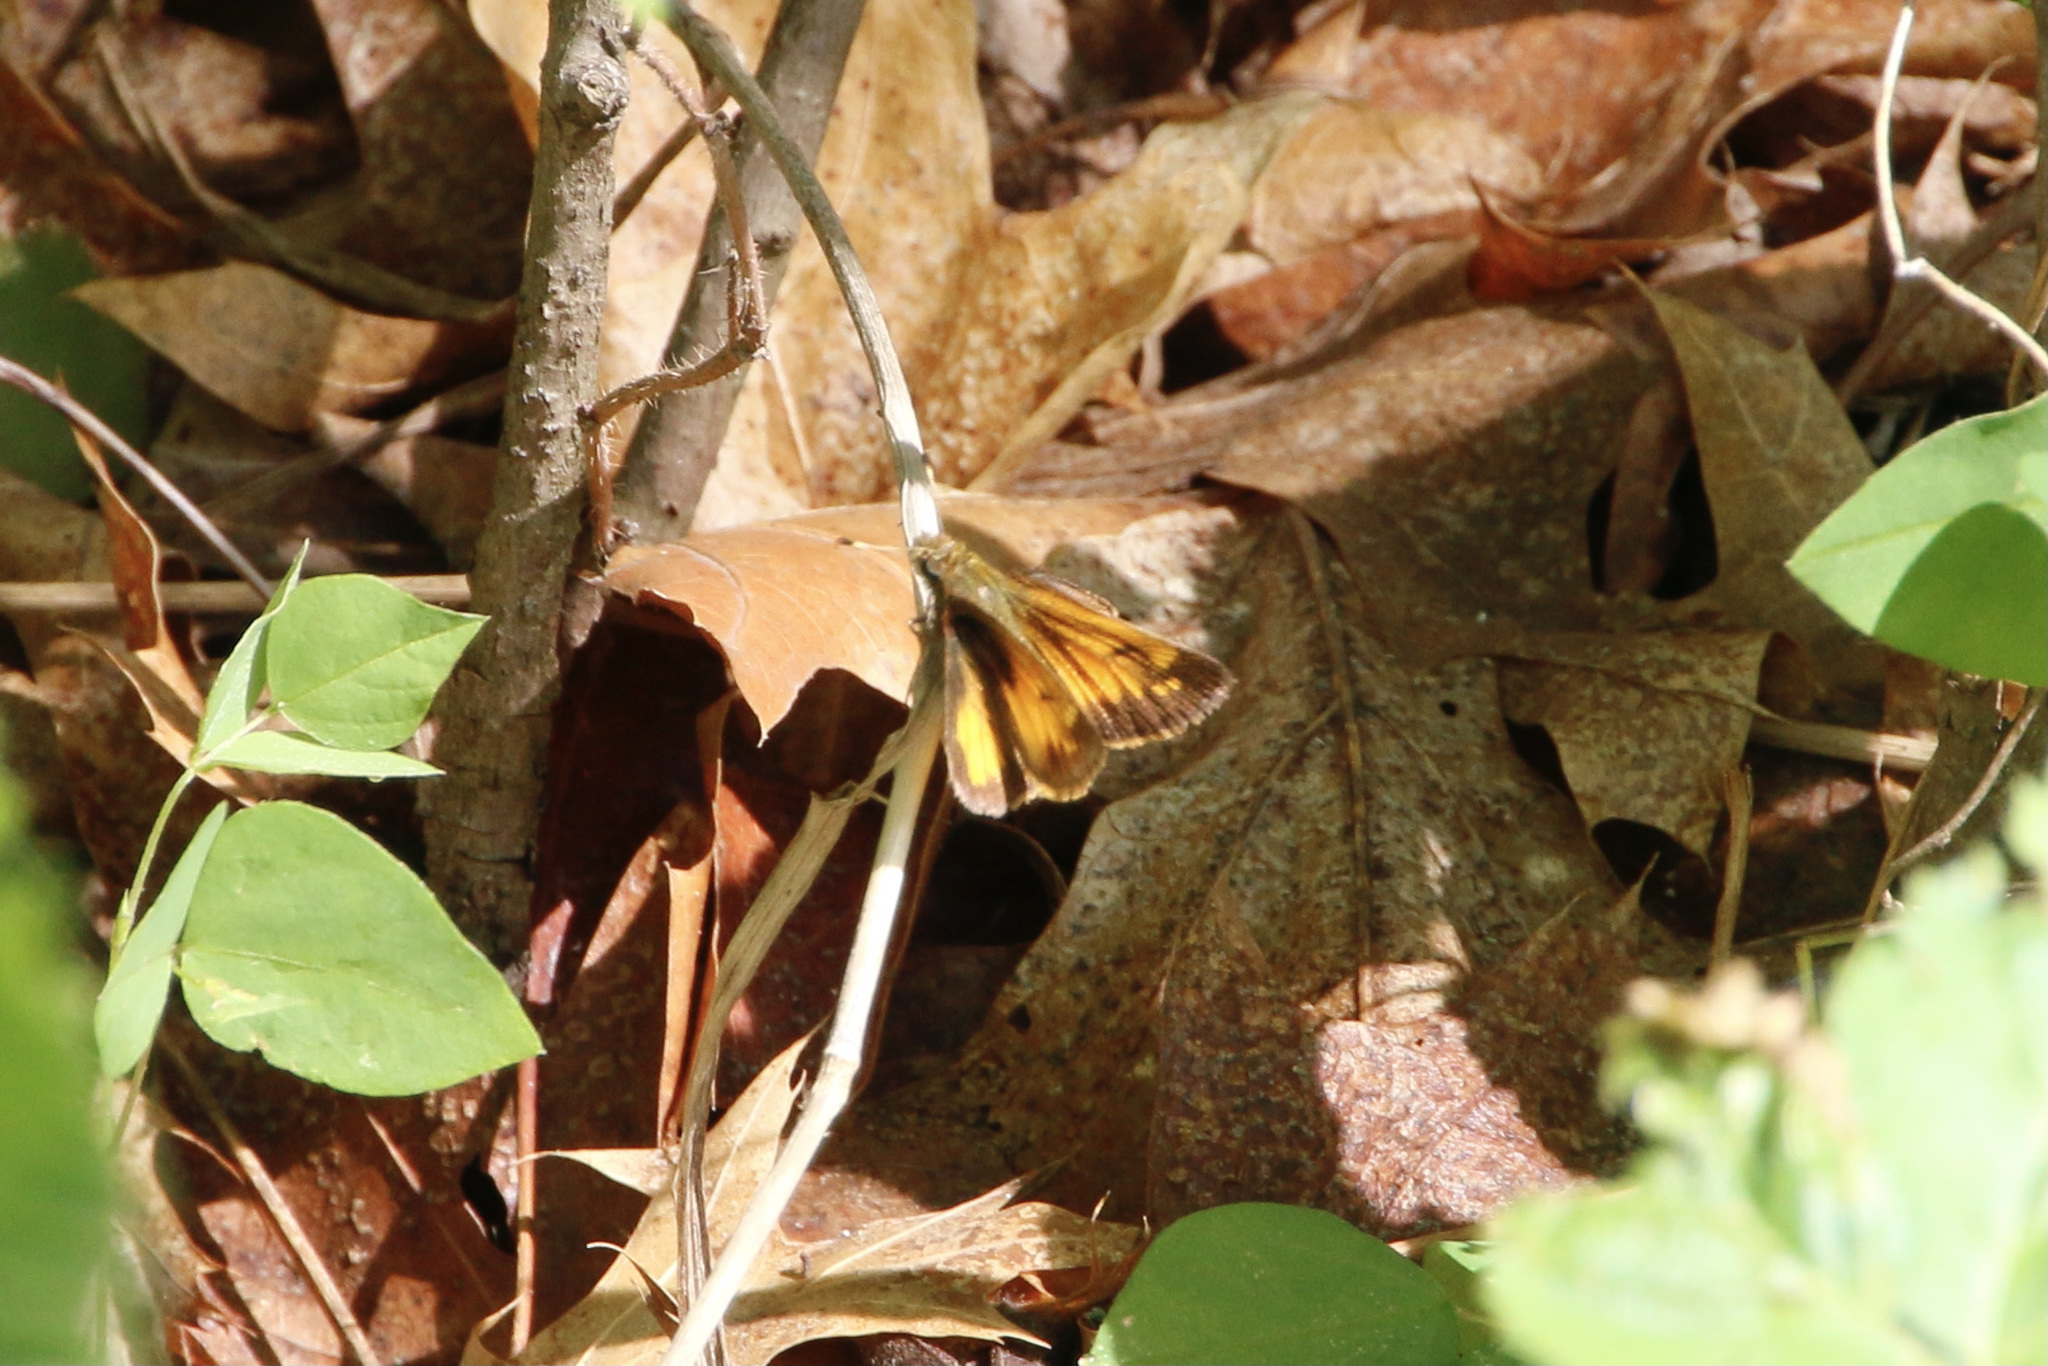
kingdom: Animalia
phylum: Arthropoda
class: Insecta
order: Lepidoptera
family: Hesperiidae
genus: Lon
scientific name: Lon hobomok
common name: Hobomok skipper
